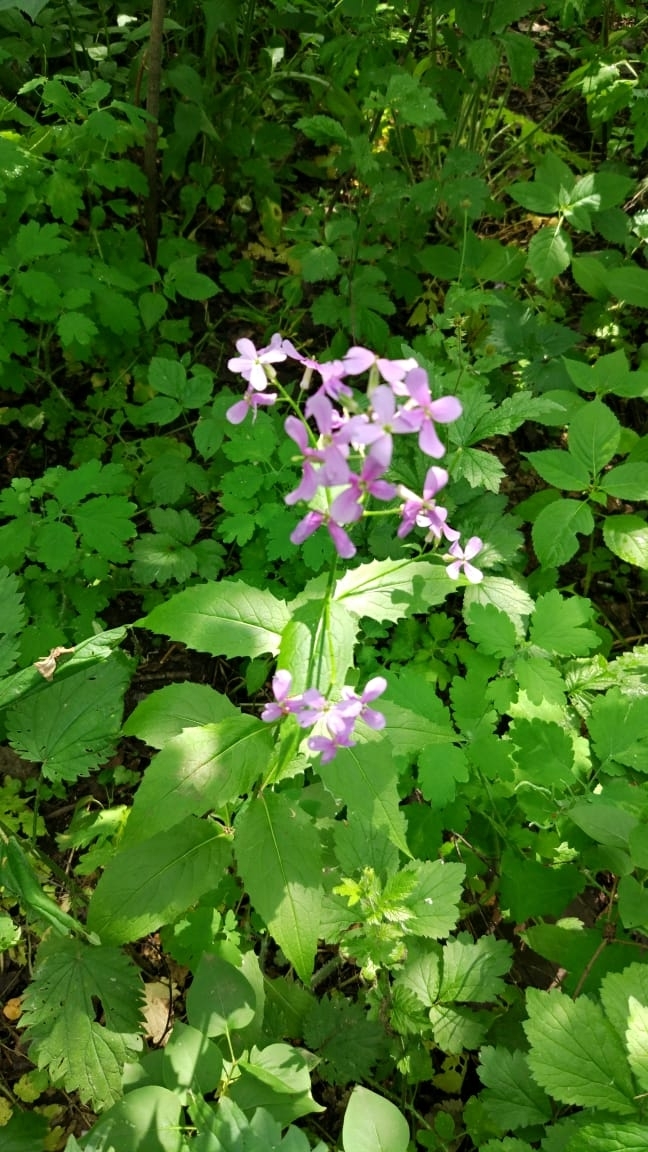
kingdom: Plantae
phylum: Tracheophyta
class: Magnoliopsida
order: Brassicales
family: Brassicaceae
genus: Hesperis
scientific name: Hesperis matronalis
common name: Dame's-violet
